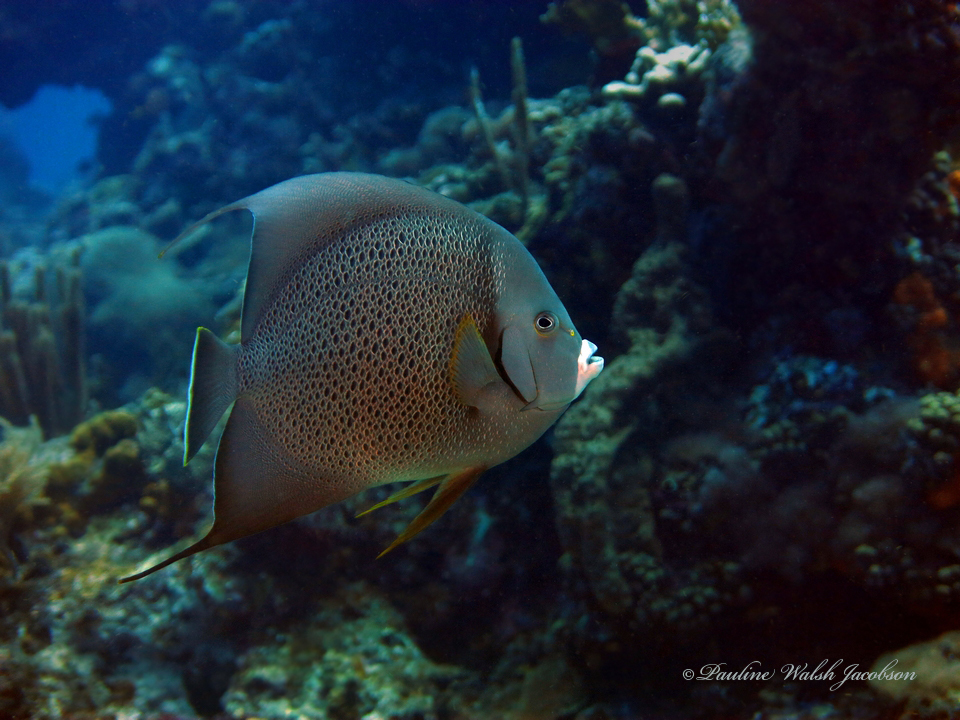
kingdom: Animalia
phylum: Chordata
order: Perciformes
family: Pomacanthidae
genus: Pomacanthus
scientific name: Pomacanthus arcuatus
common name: Gray angelfish
